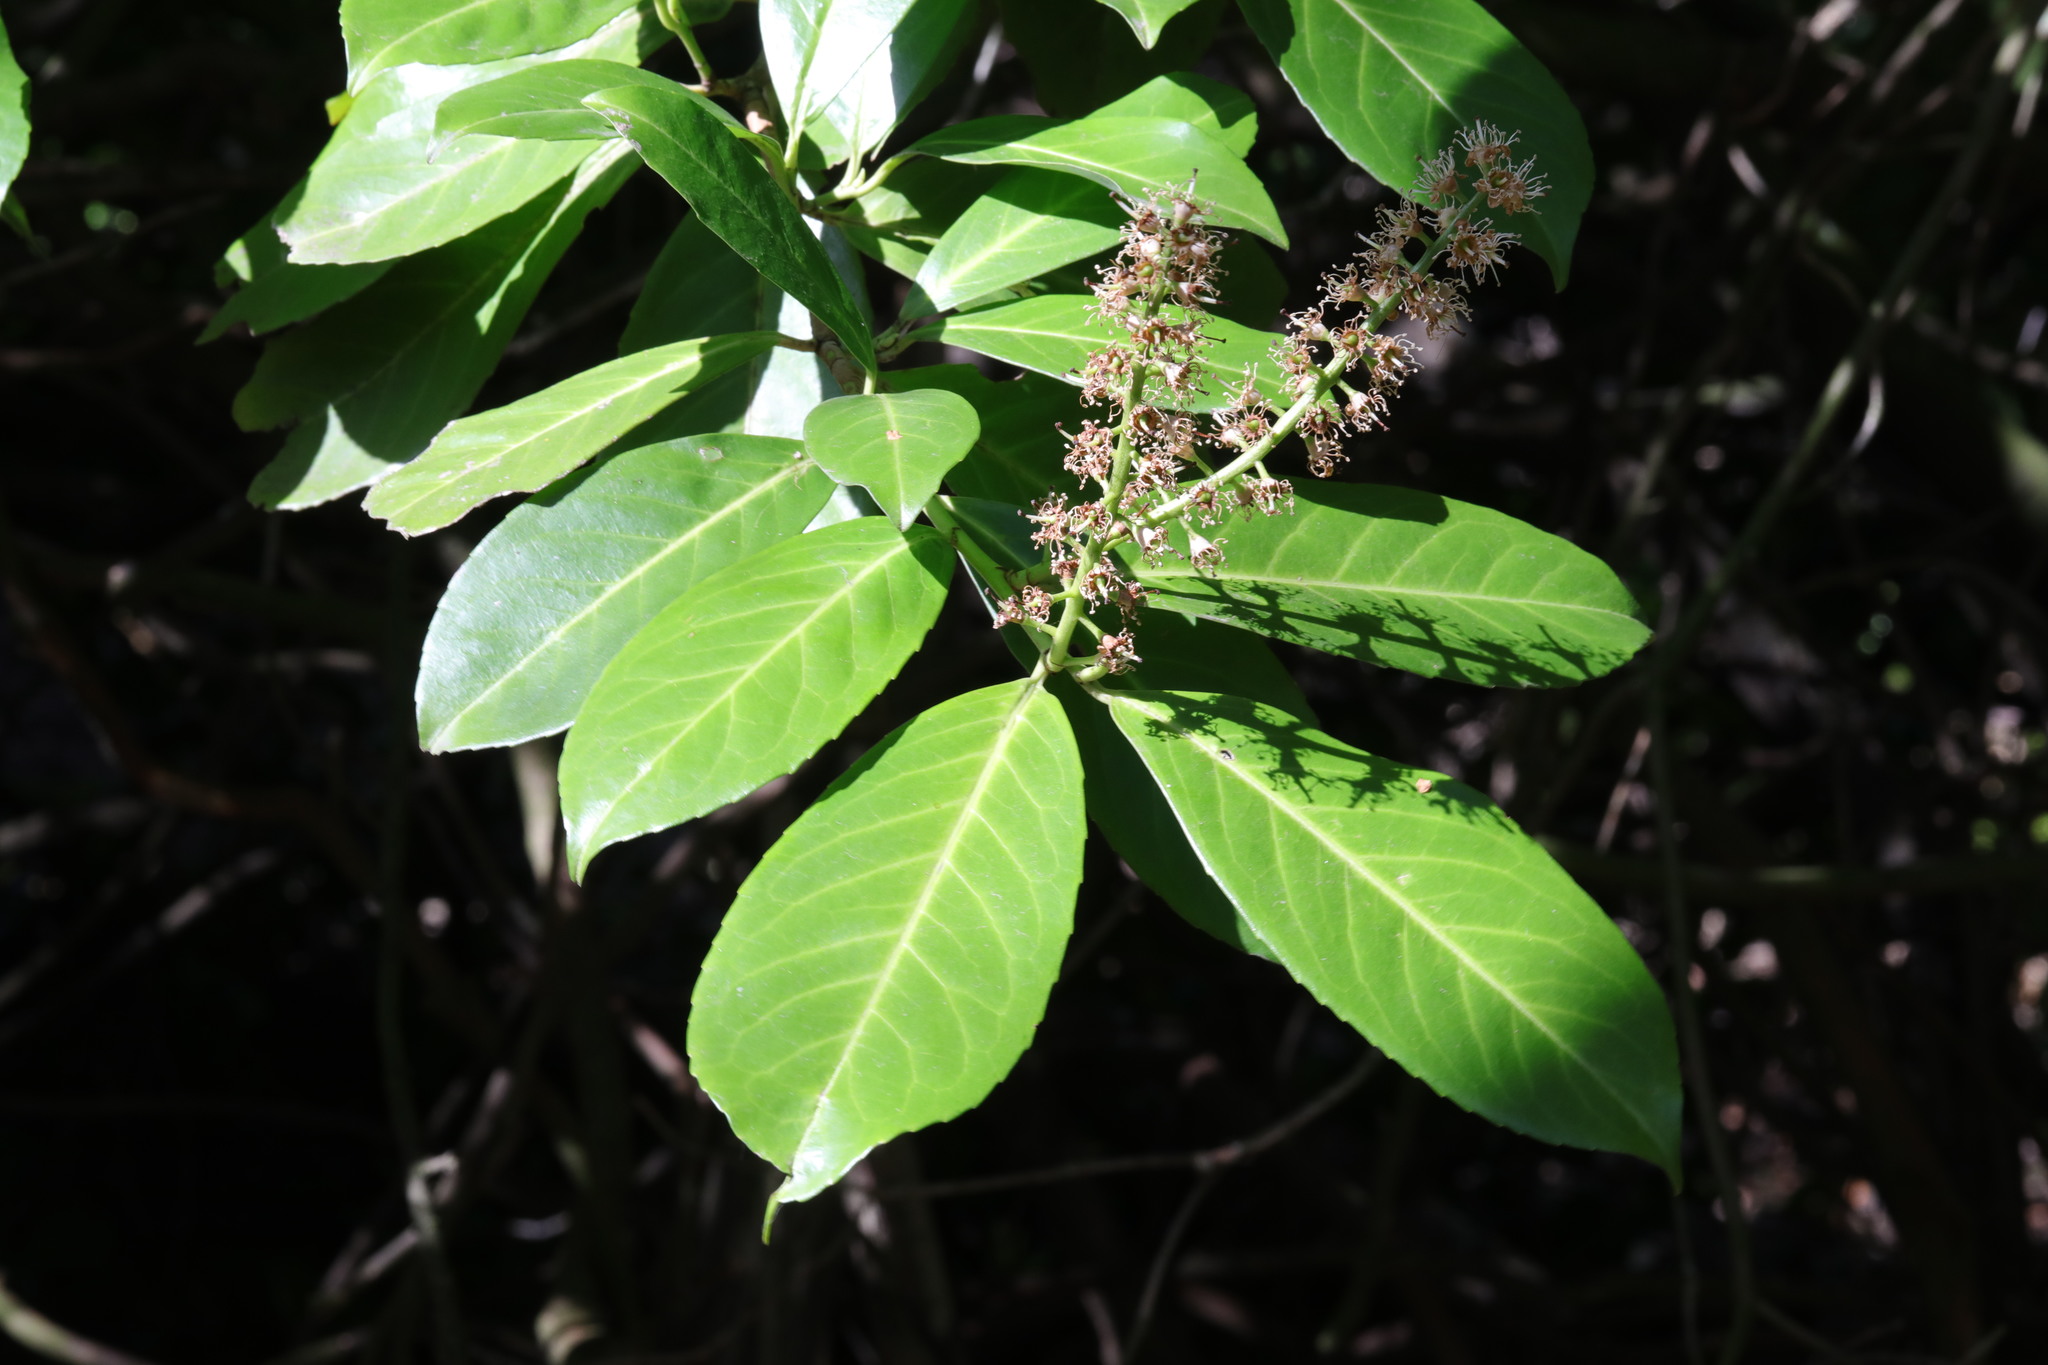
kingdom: Plantae
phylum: Tracheophyta
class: Magnoliopsida
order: Rosales
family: Rosaceae
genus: Prunus
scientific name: Prunus laurocerasus
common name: Cherry laurel
